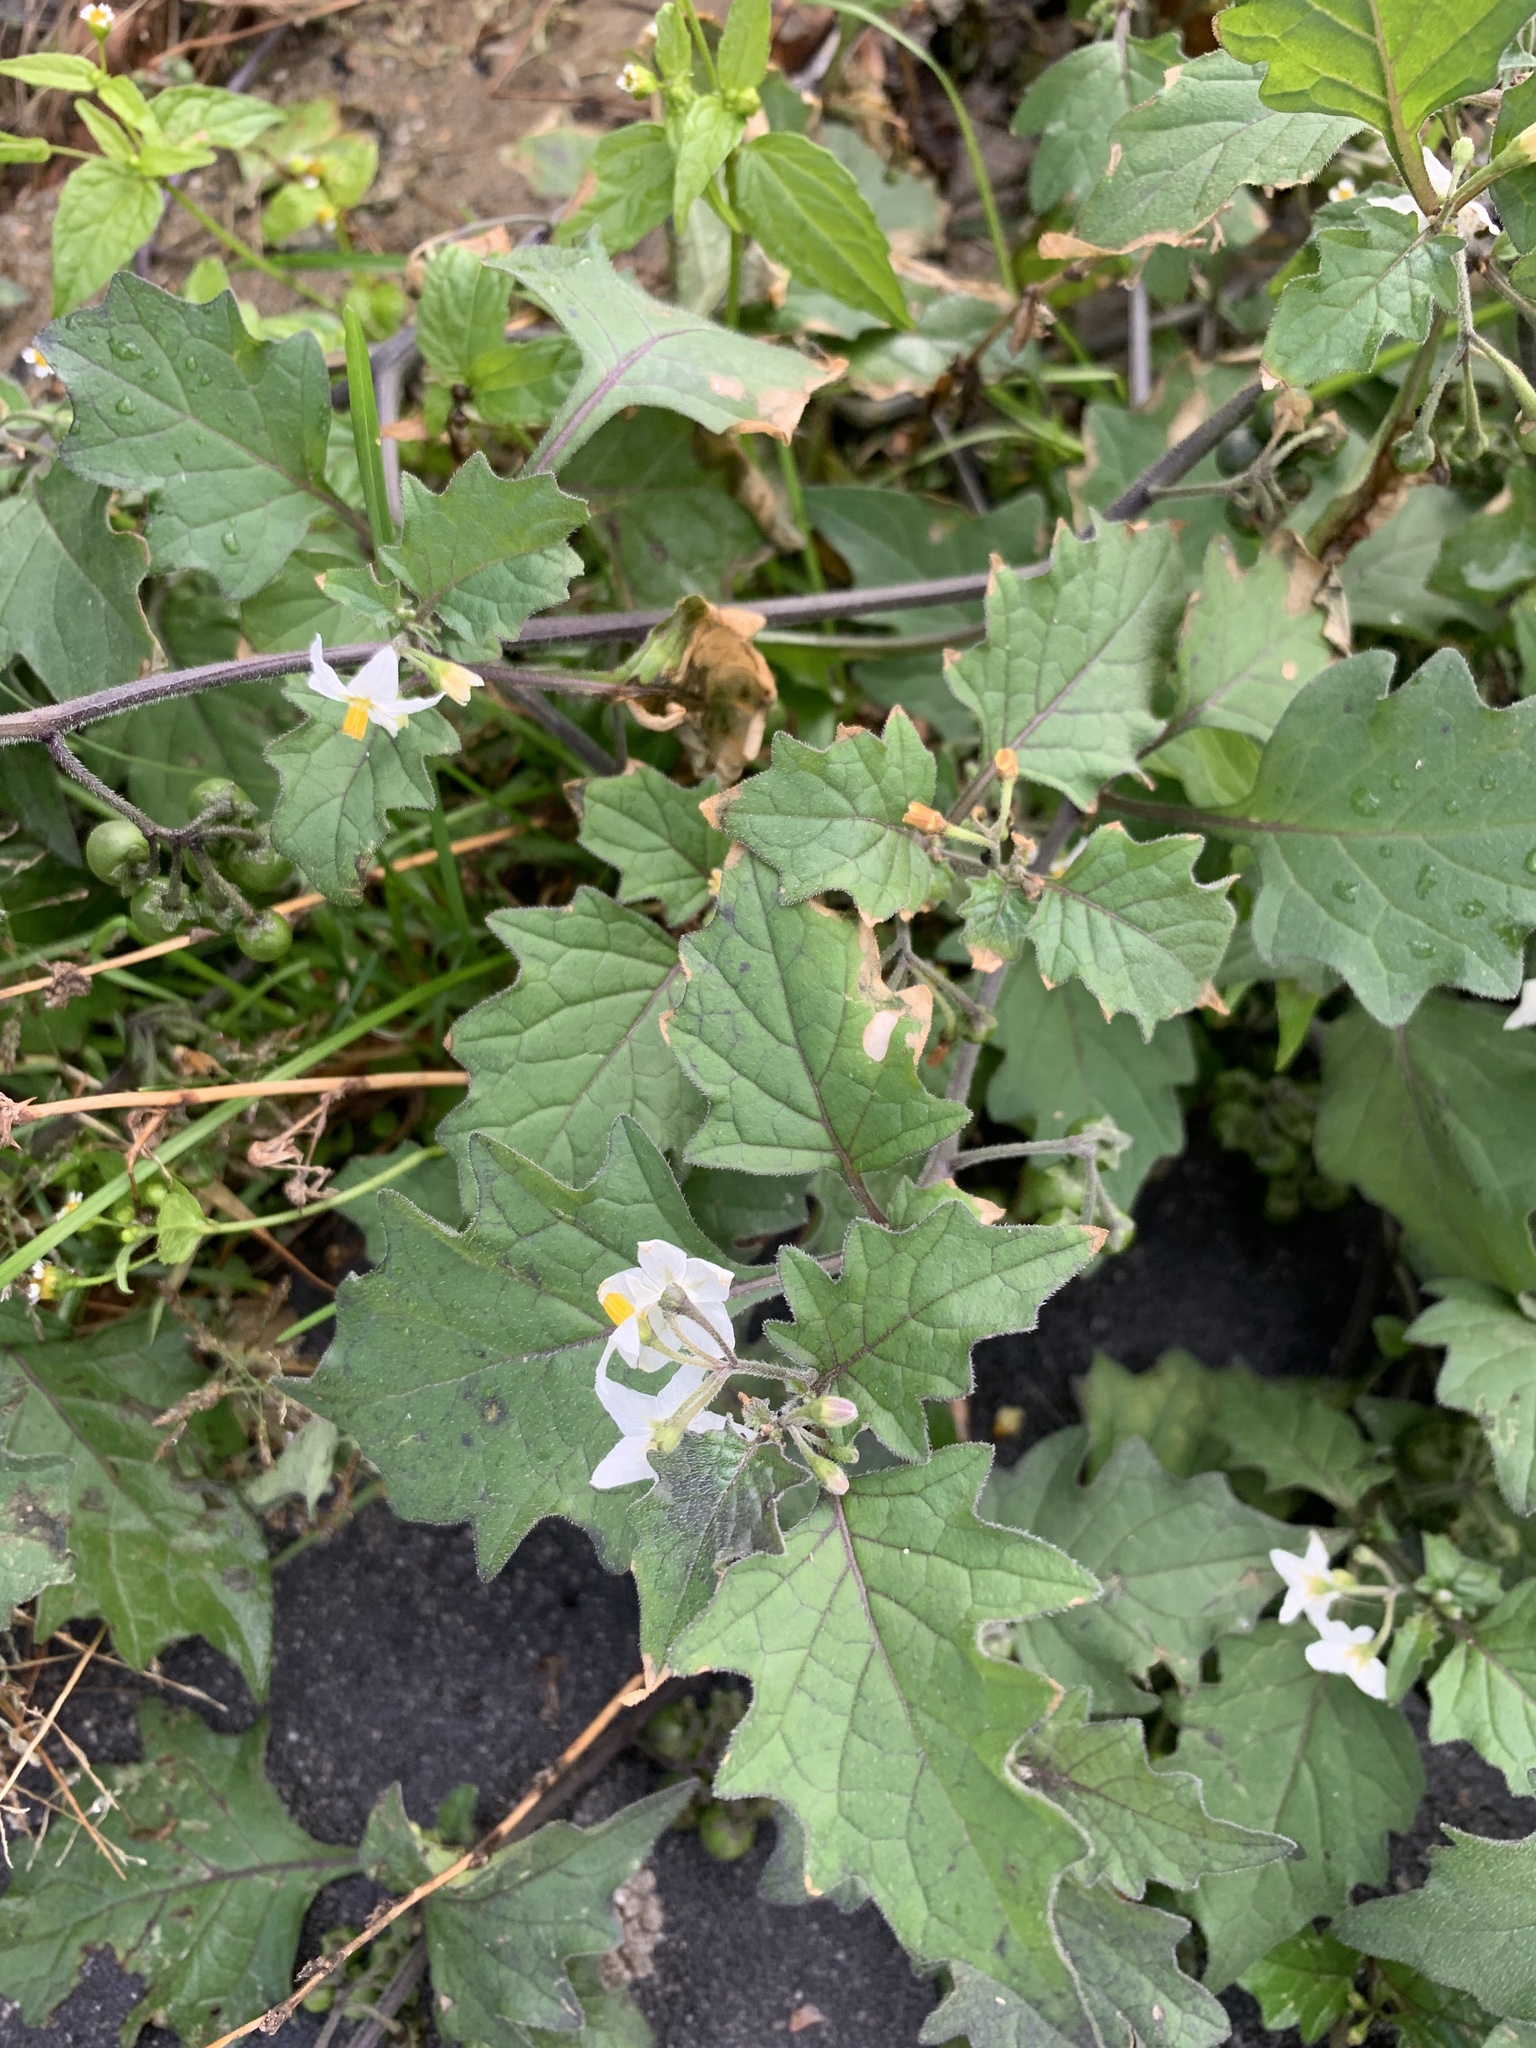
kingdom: Plantae
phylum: Tracheophyta
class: Magnoliopsida
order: Solanales
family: Solanaceae
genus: Solanum
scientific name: Solanum nigrum
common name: Black nightshade
